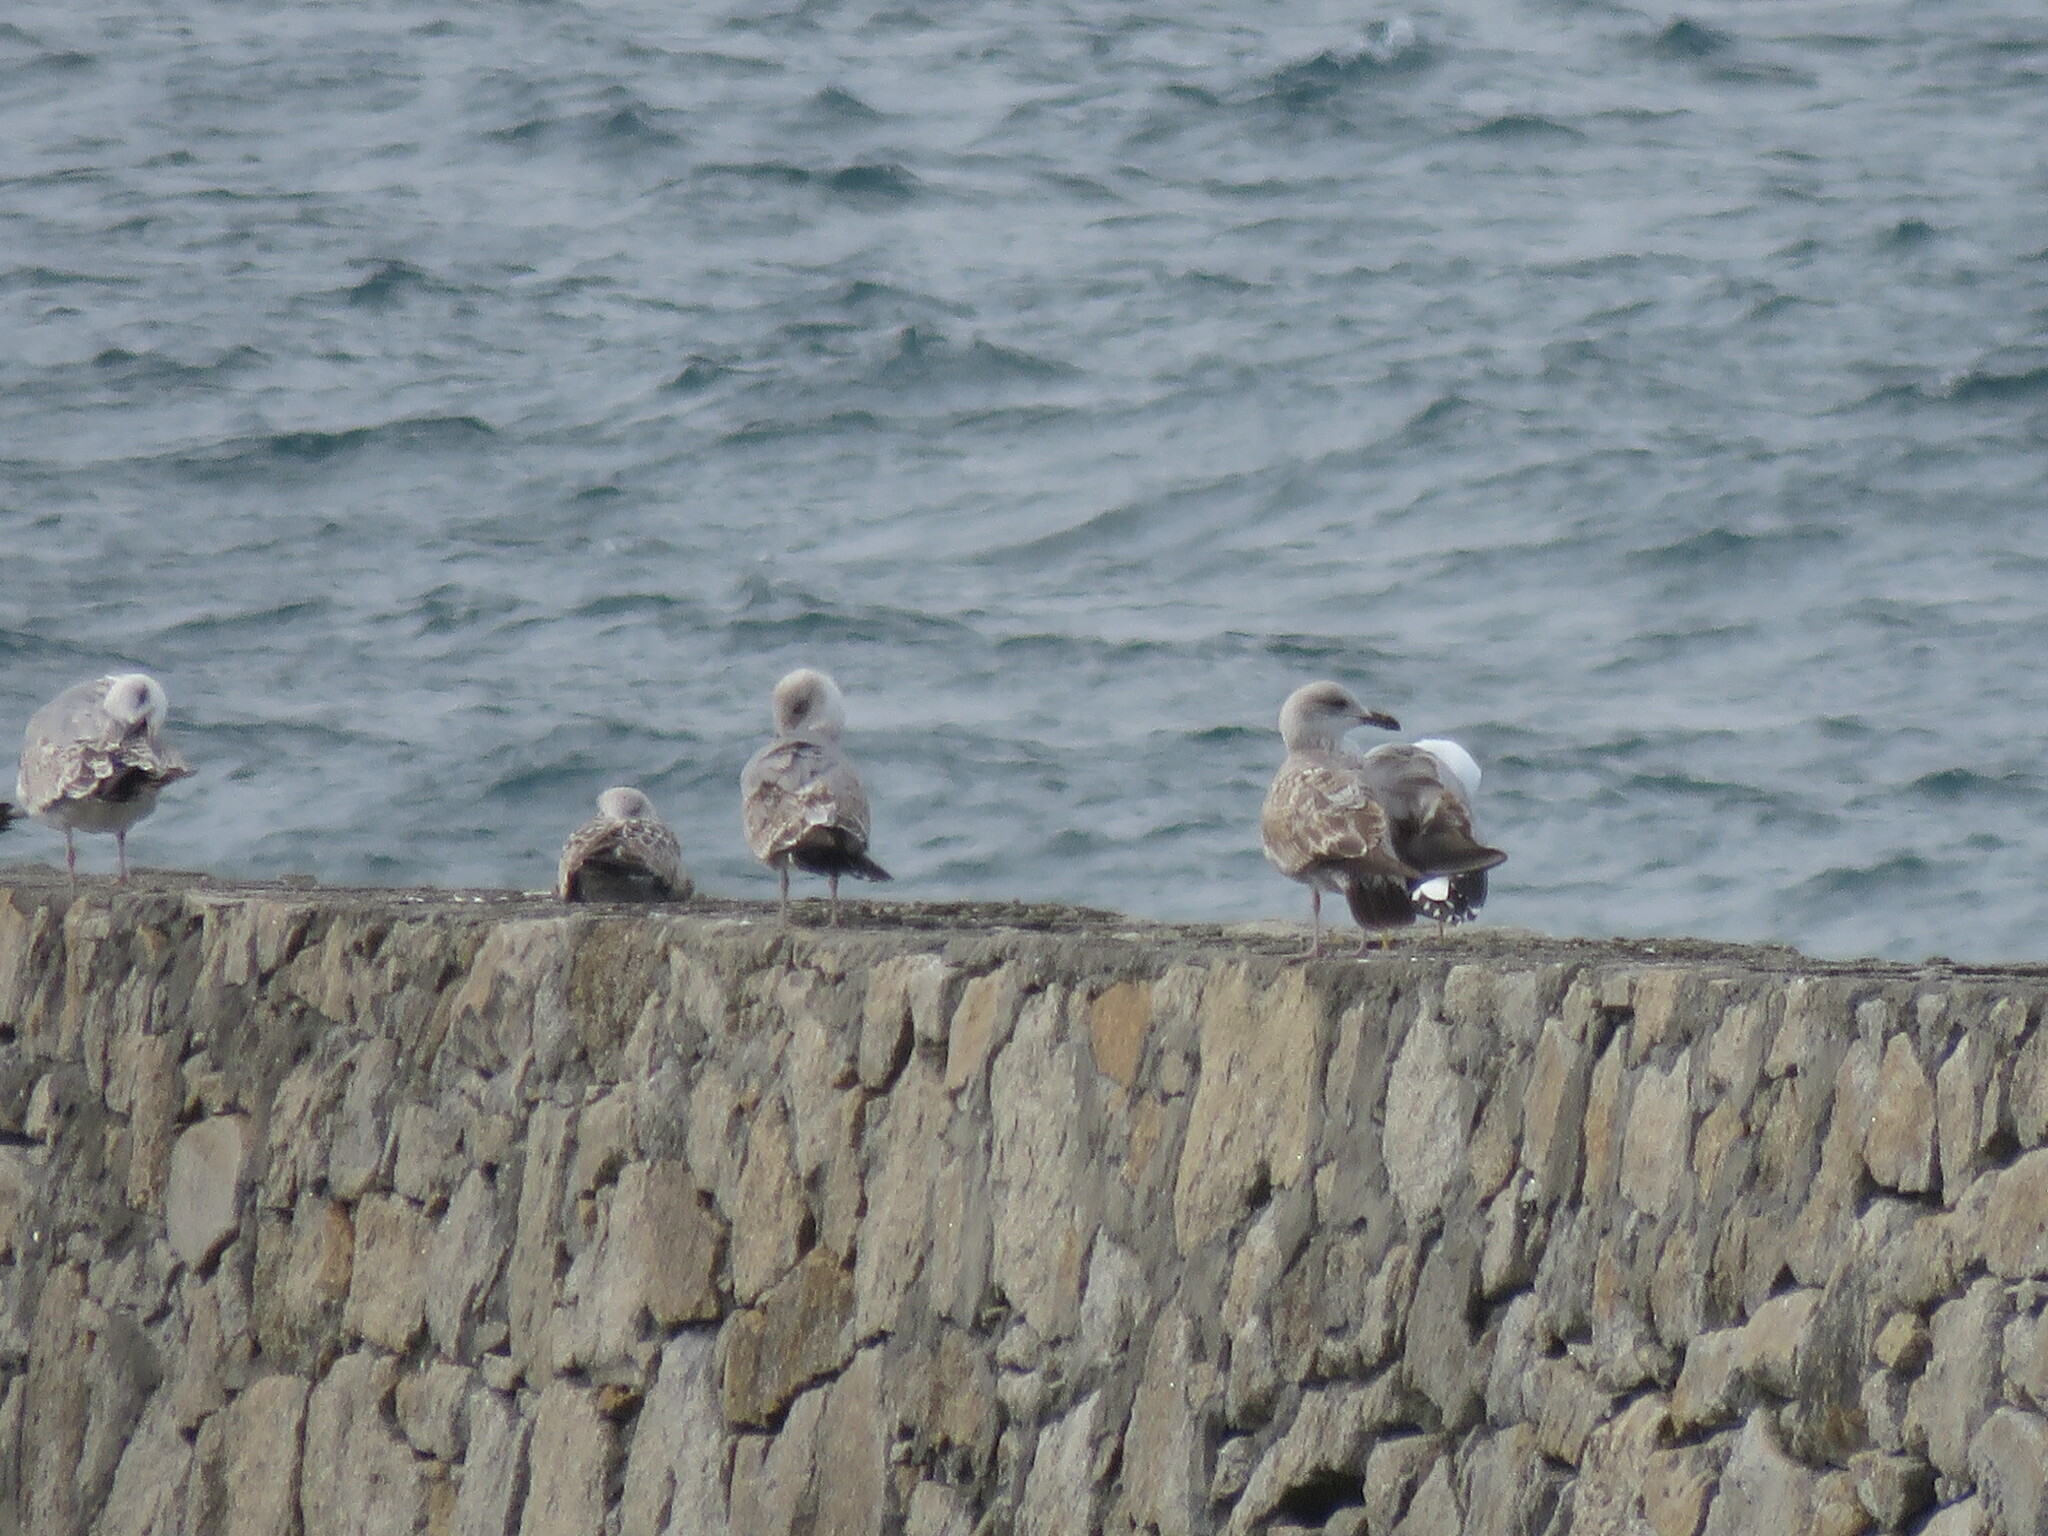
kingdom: Animalia
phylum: Chordata
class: Aves
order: Charadriiformes
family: Laridae
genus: Larus
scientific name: Larus michahellis
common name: Yellow-legged gull
